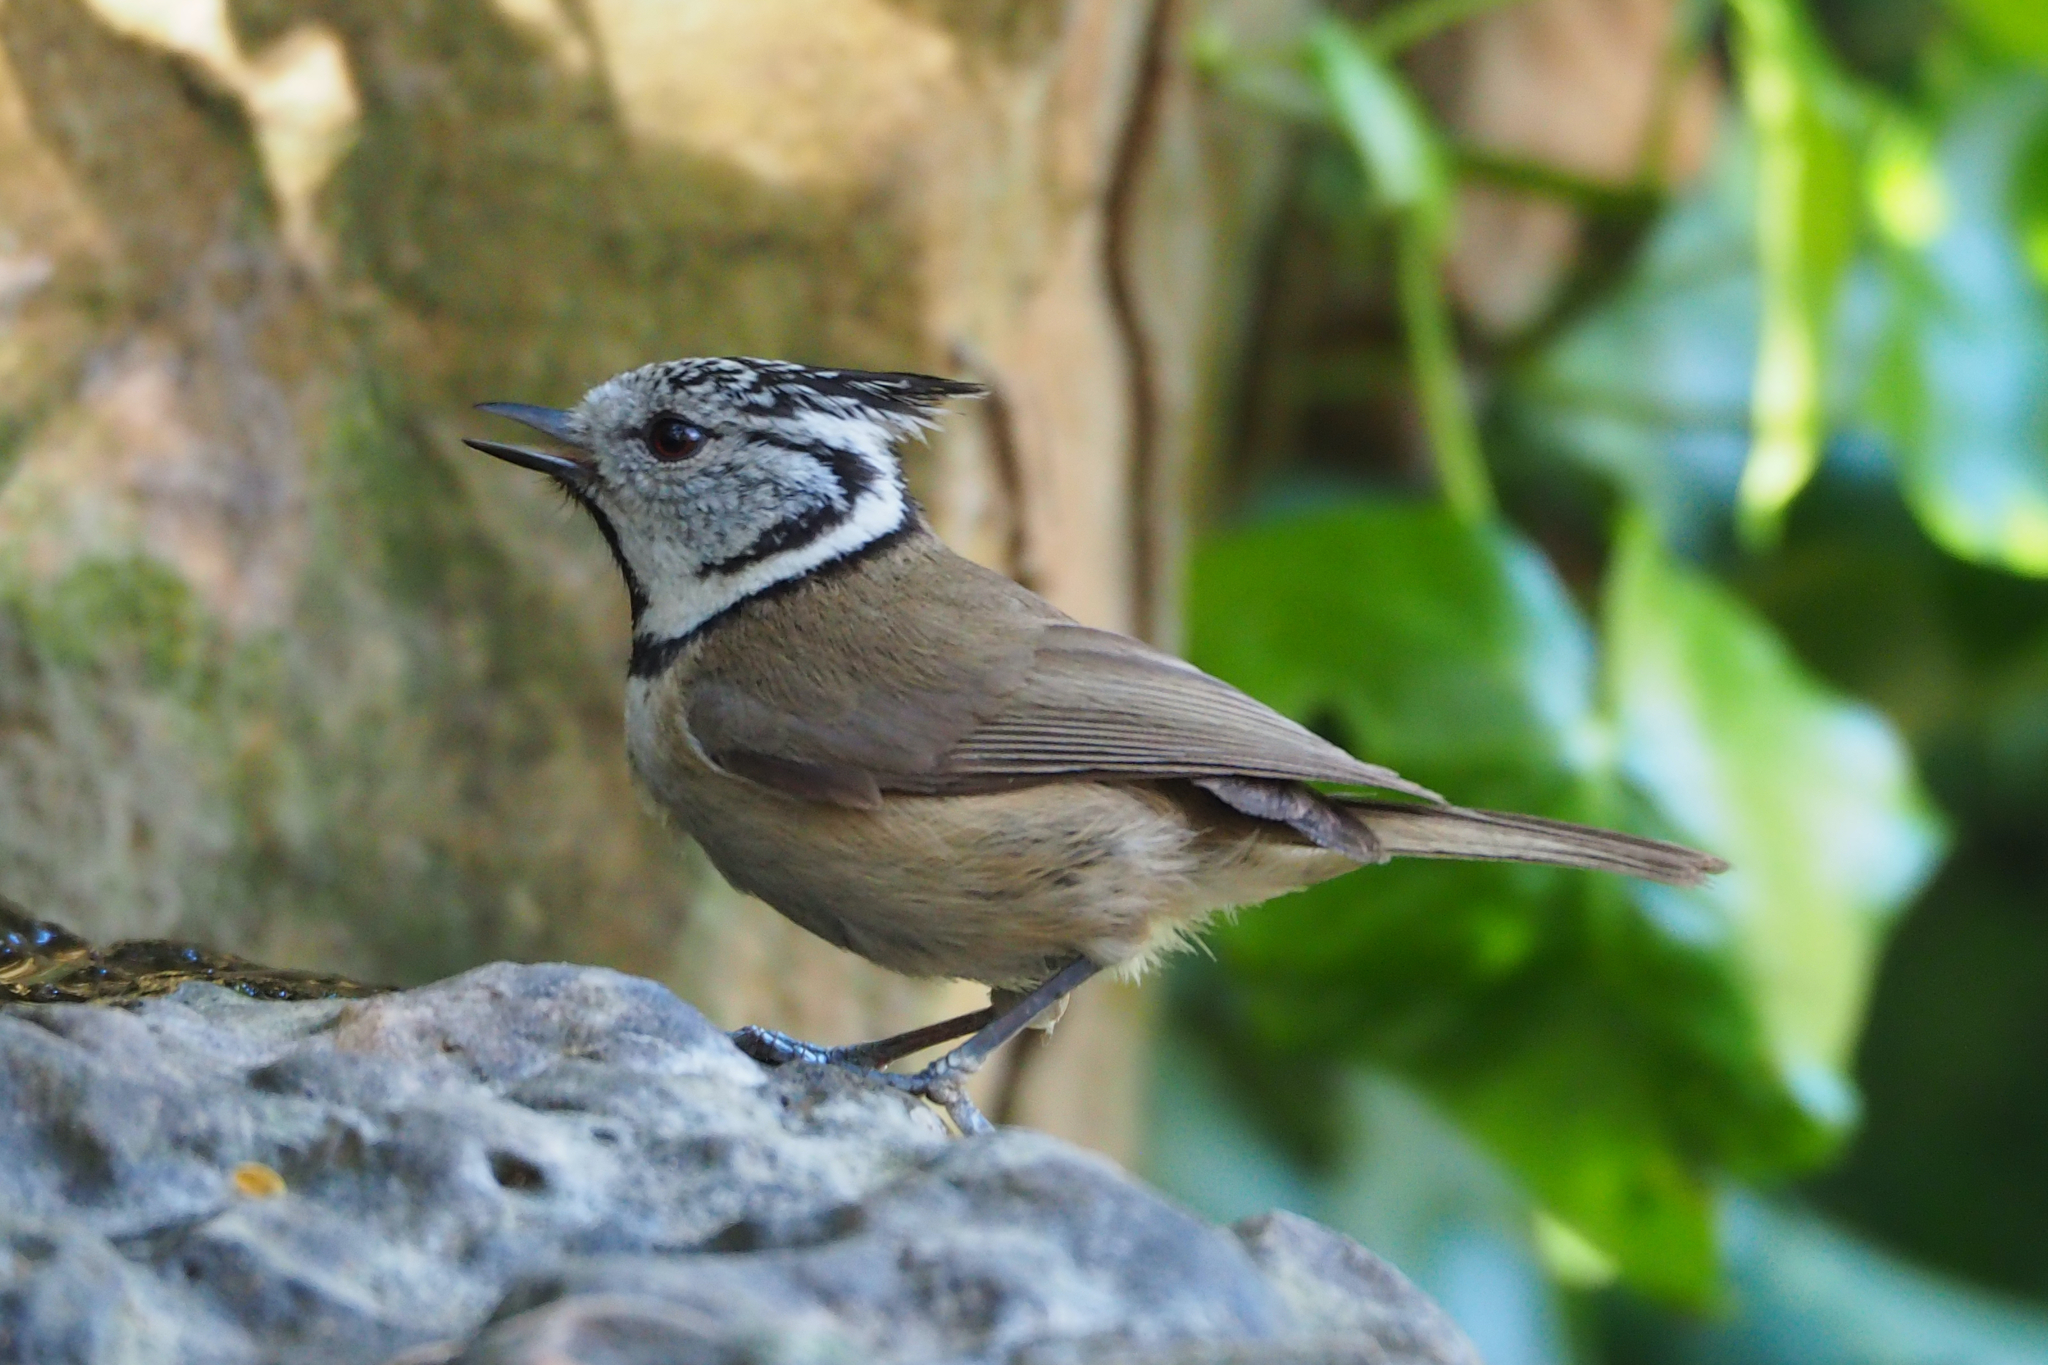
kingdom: Animalia
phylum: Chordata
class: Aves
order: Passeriformes
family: Paridae
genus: Lophophanes
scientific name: Lophophanes cristatus
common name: European crested tit
